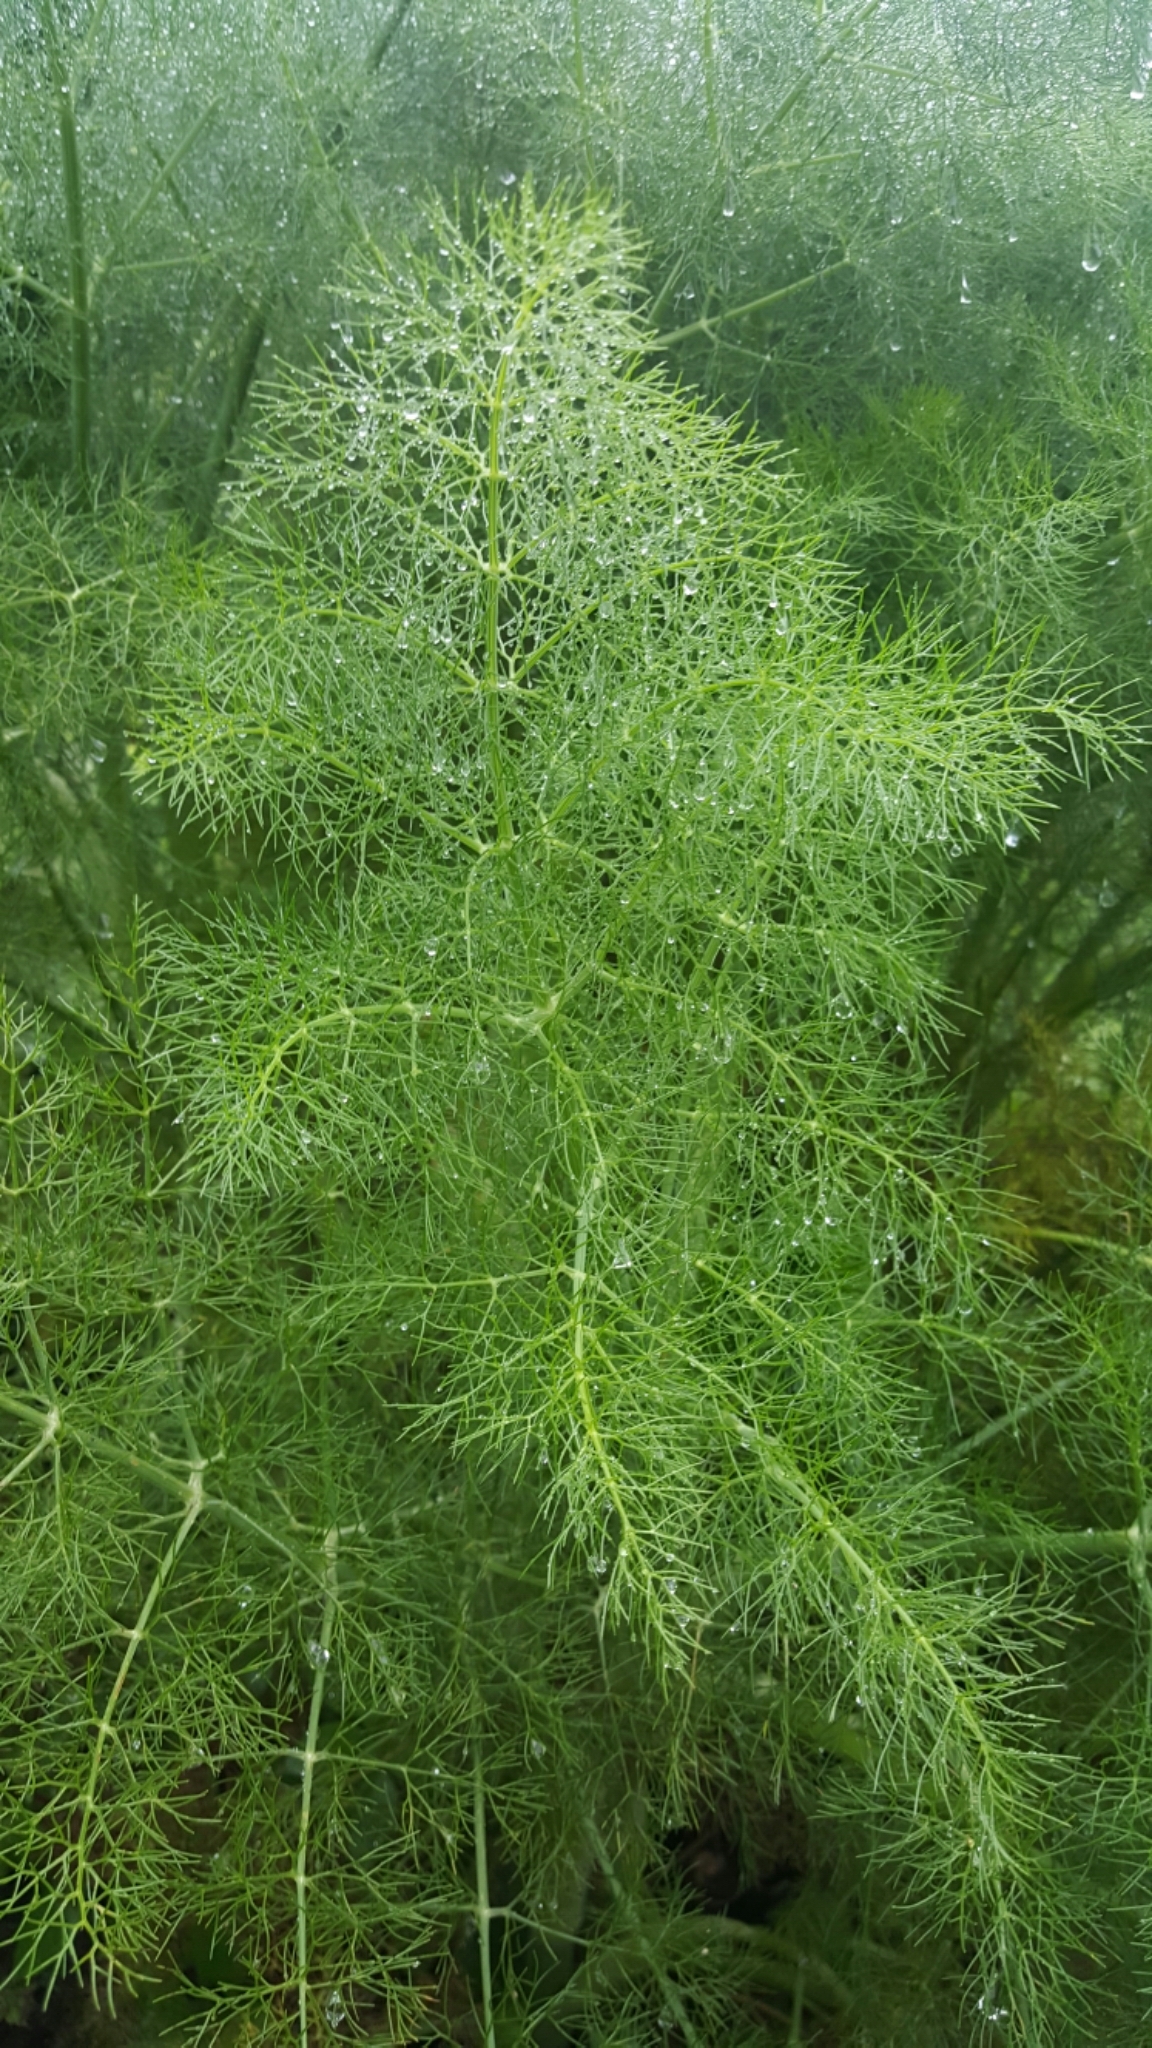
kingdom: Plantae
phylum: Tracheophyta
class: Magnoliopsida
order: Apiales
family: Apiaceae
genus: Foeniculum
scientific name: Foeniculum vulgare
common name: Fennel
